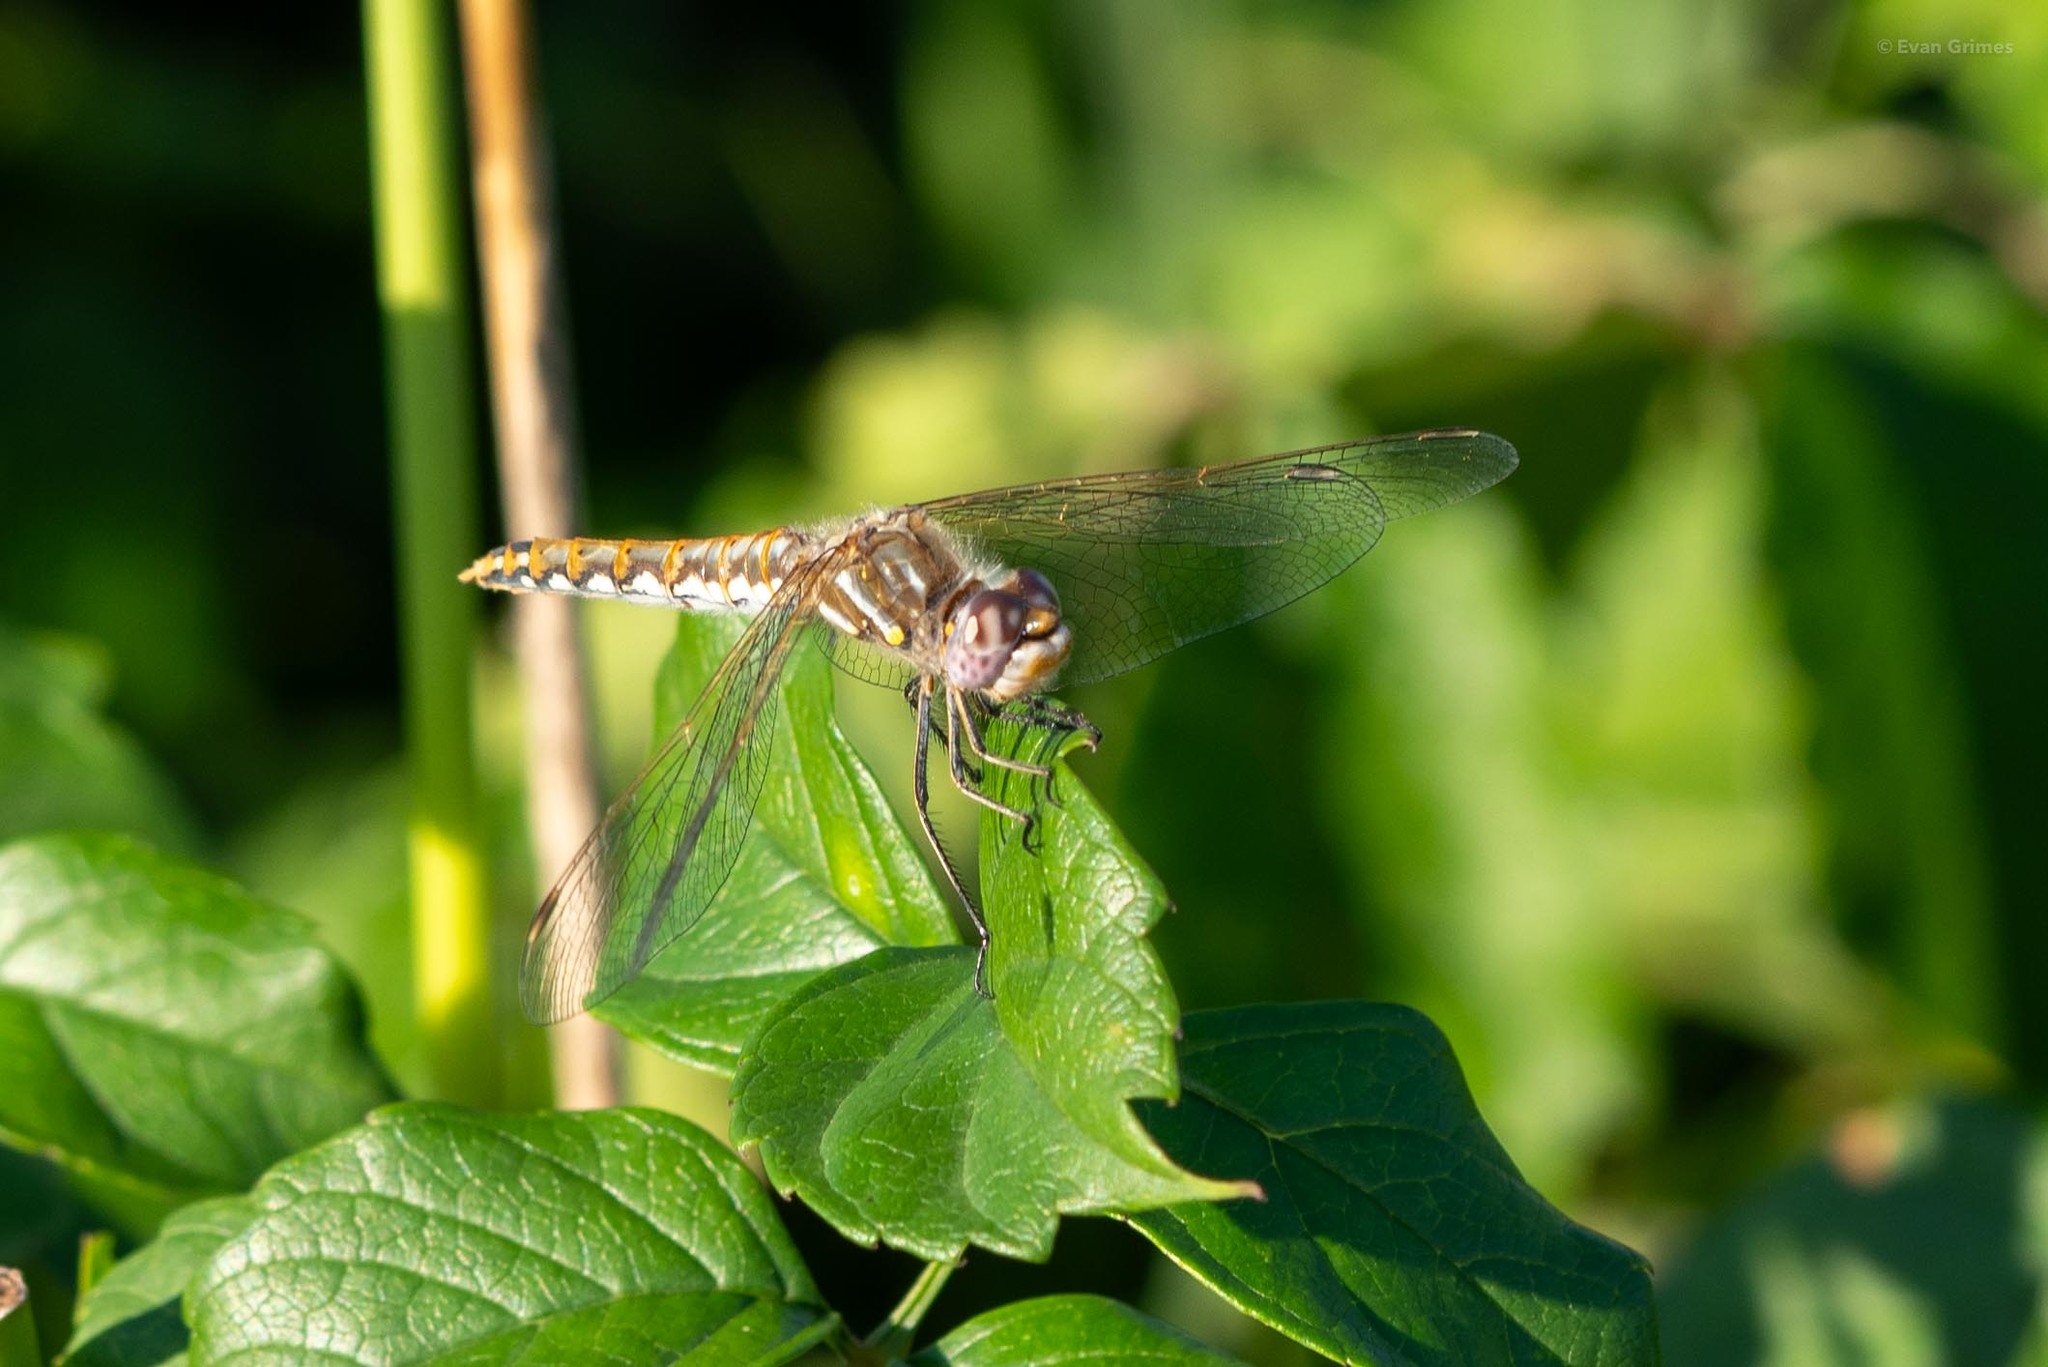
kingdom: Animalia
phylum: Arthropoda
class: Insecta
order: Odonata
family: Libellulidae
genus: Sympetrum
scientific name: Sympetrum corruptum
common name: Variegated meadowhawk
